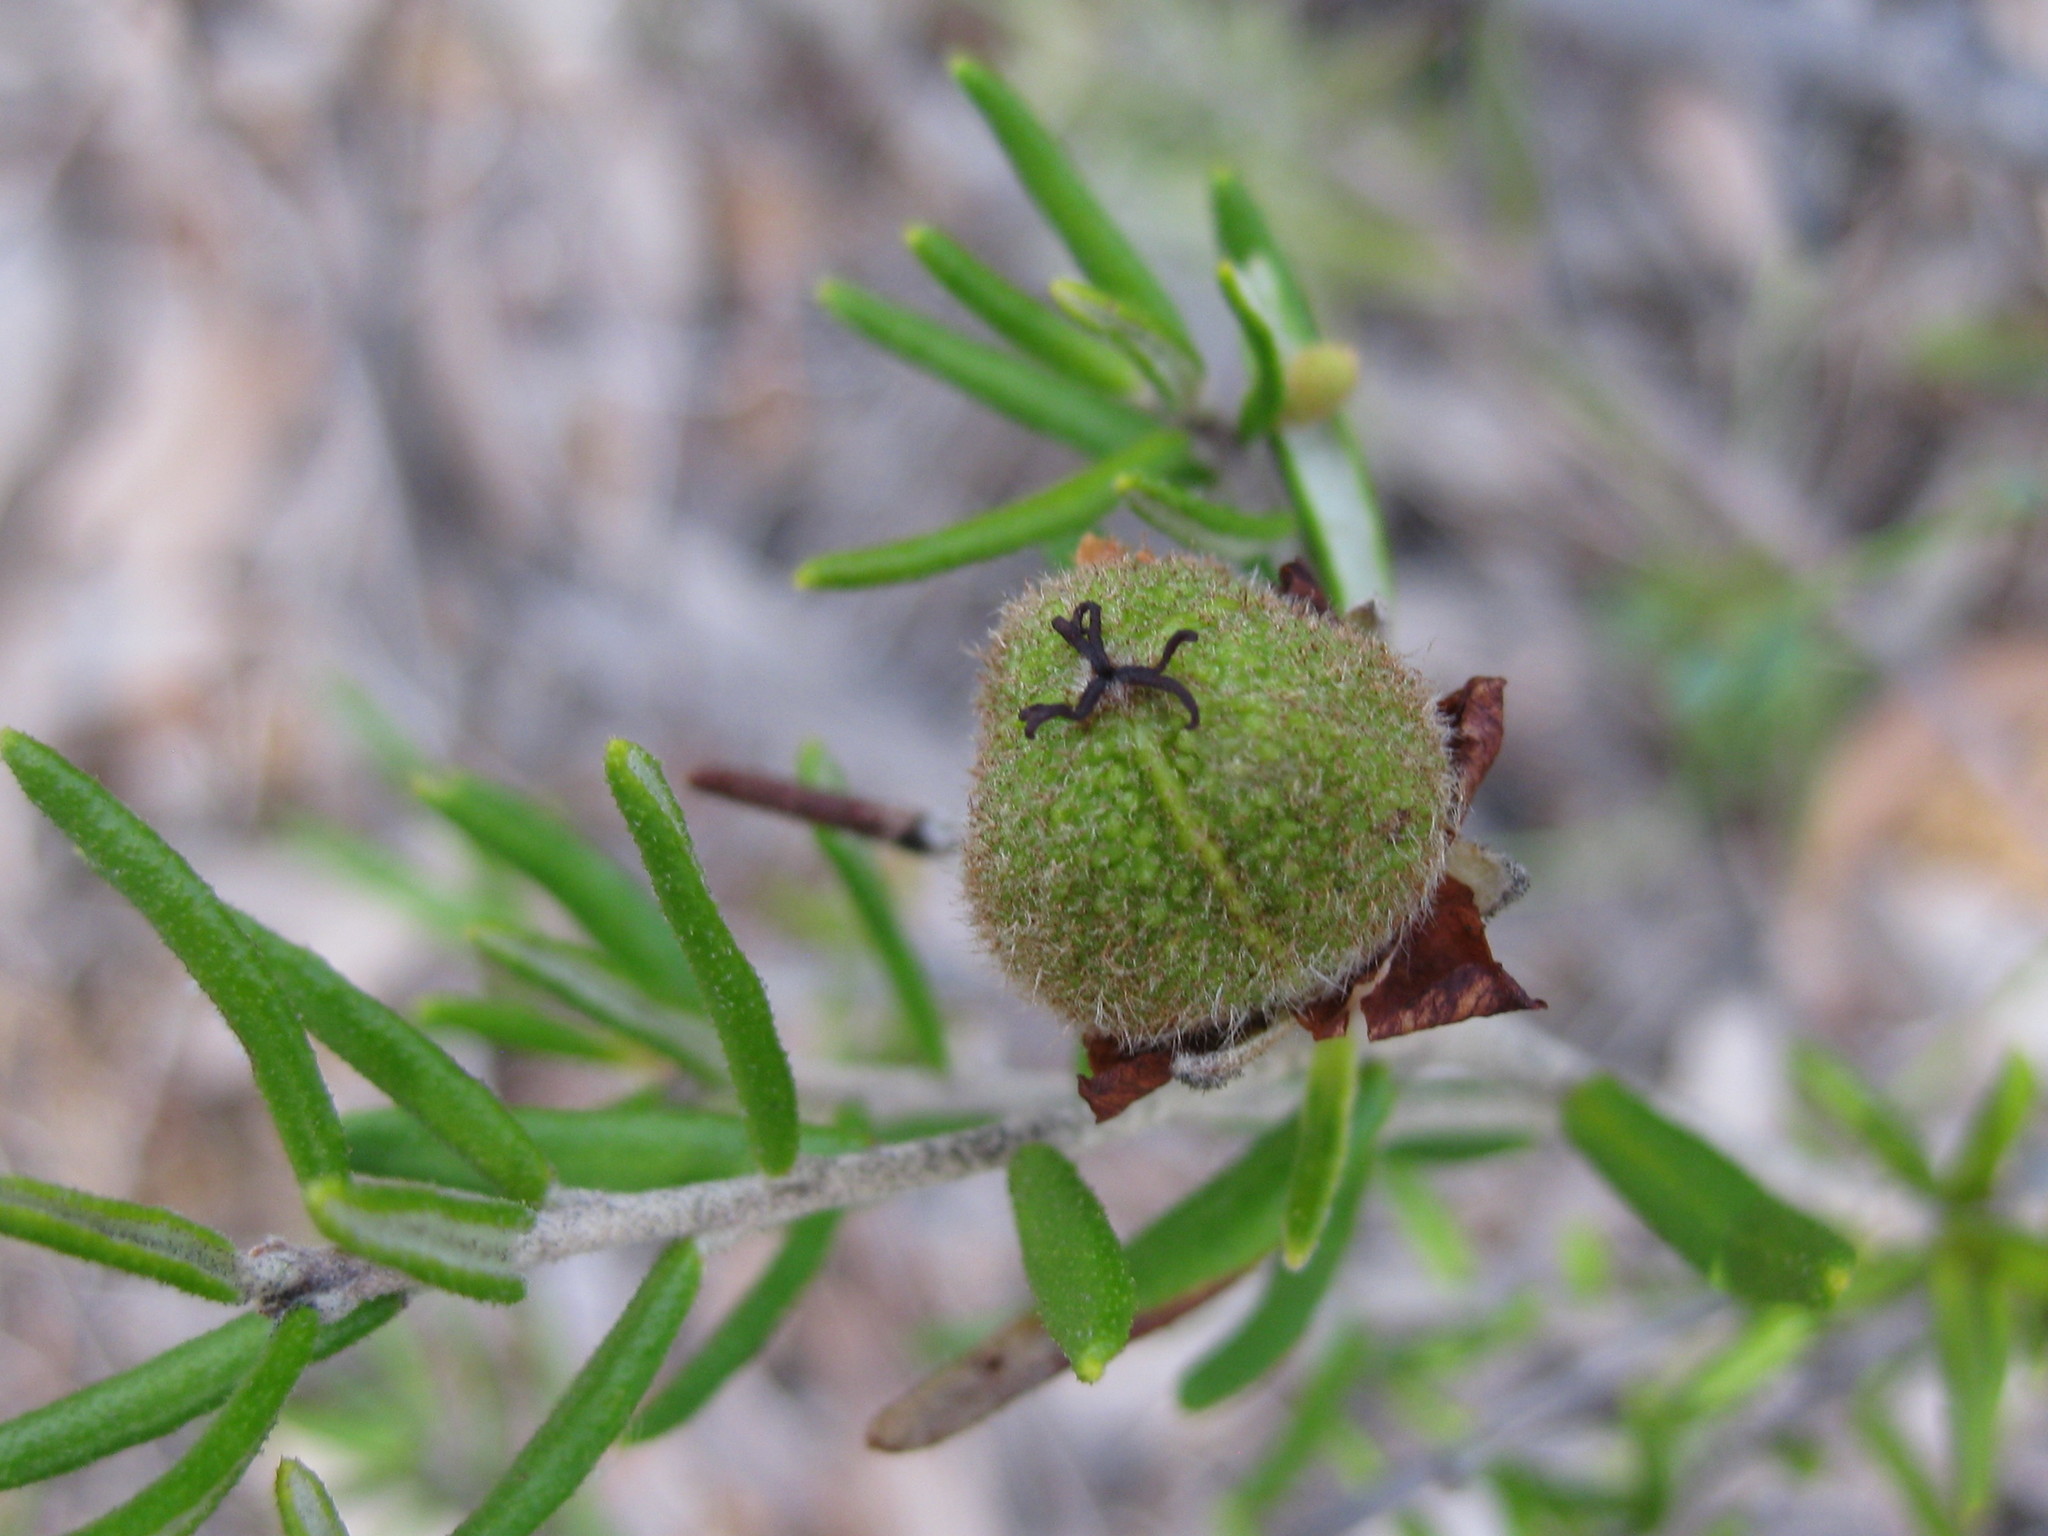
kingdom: Plantae
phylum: Tracheophyta
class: Magnoliopsida
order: Malpighiales
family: Euphorbiaceae
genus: Ricinocarpos
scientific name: Ricinocarpos bowmanii
